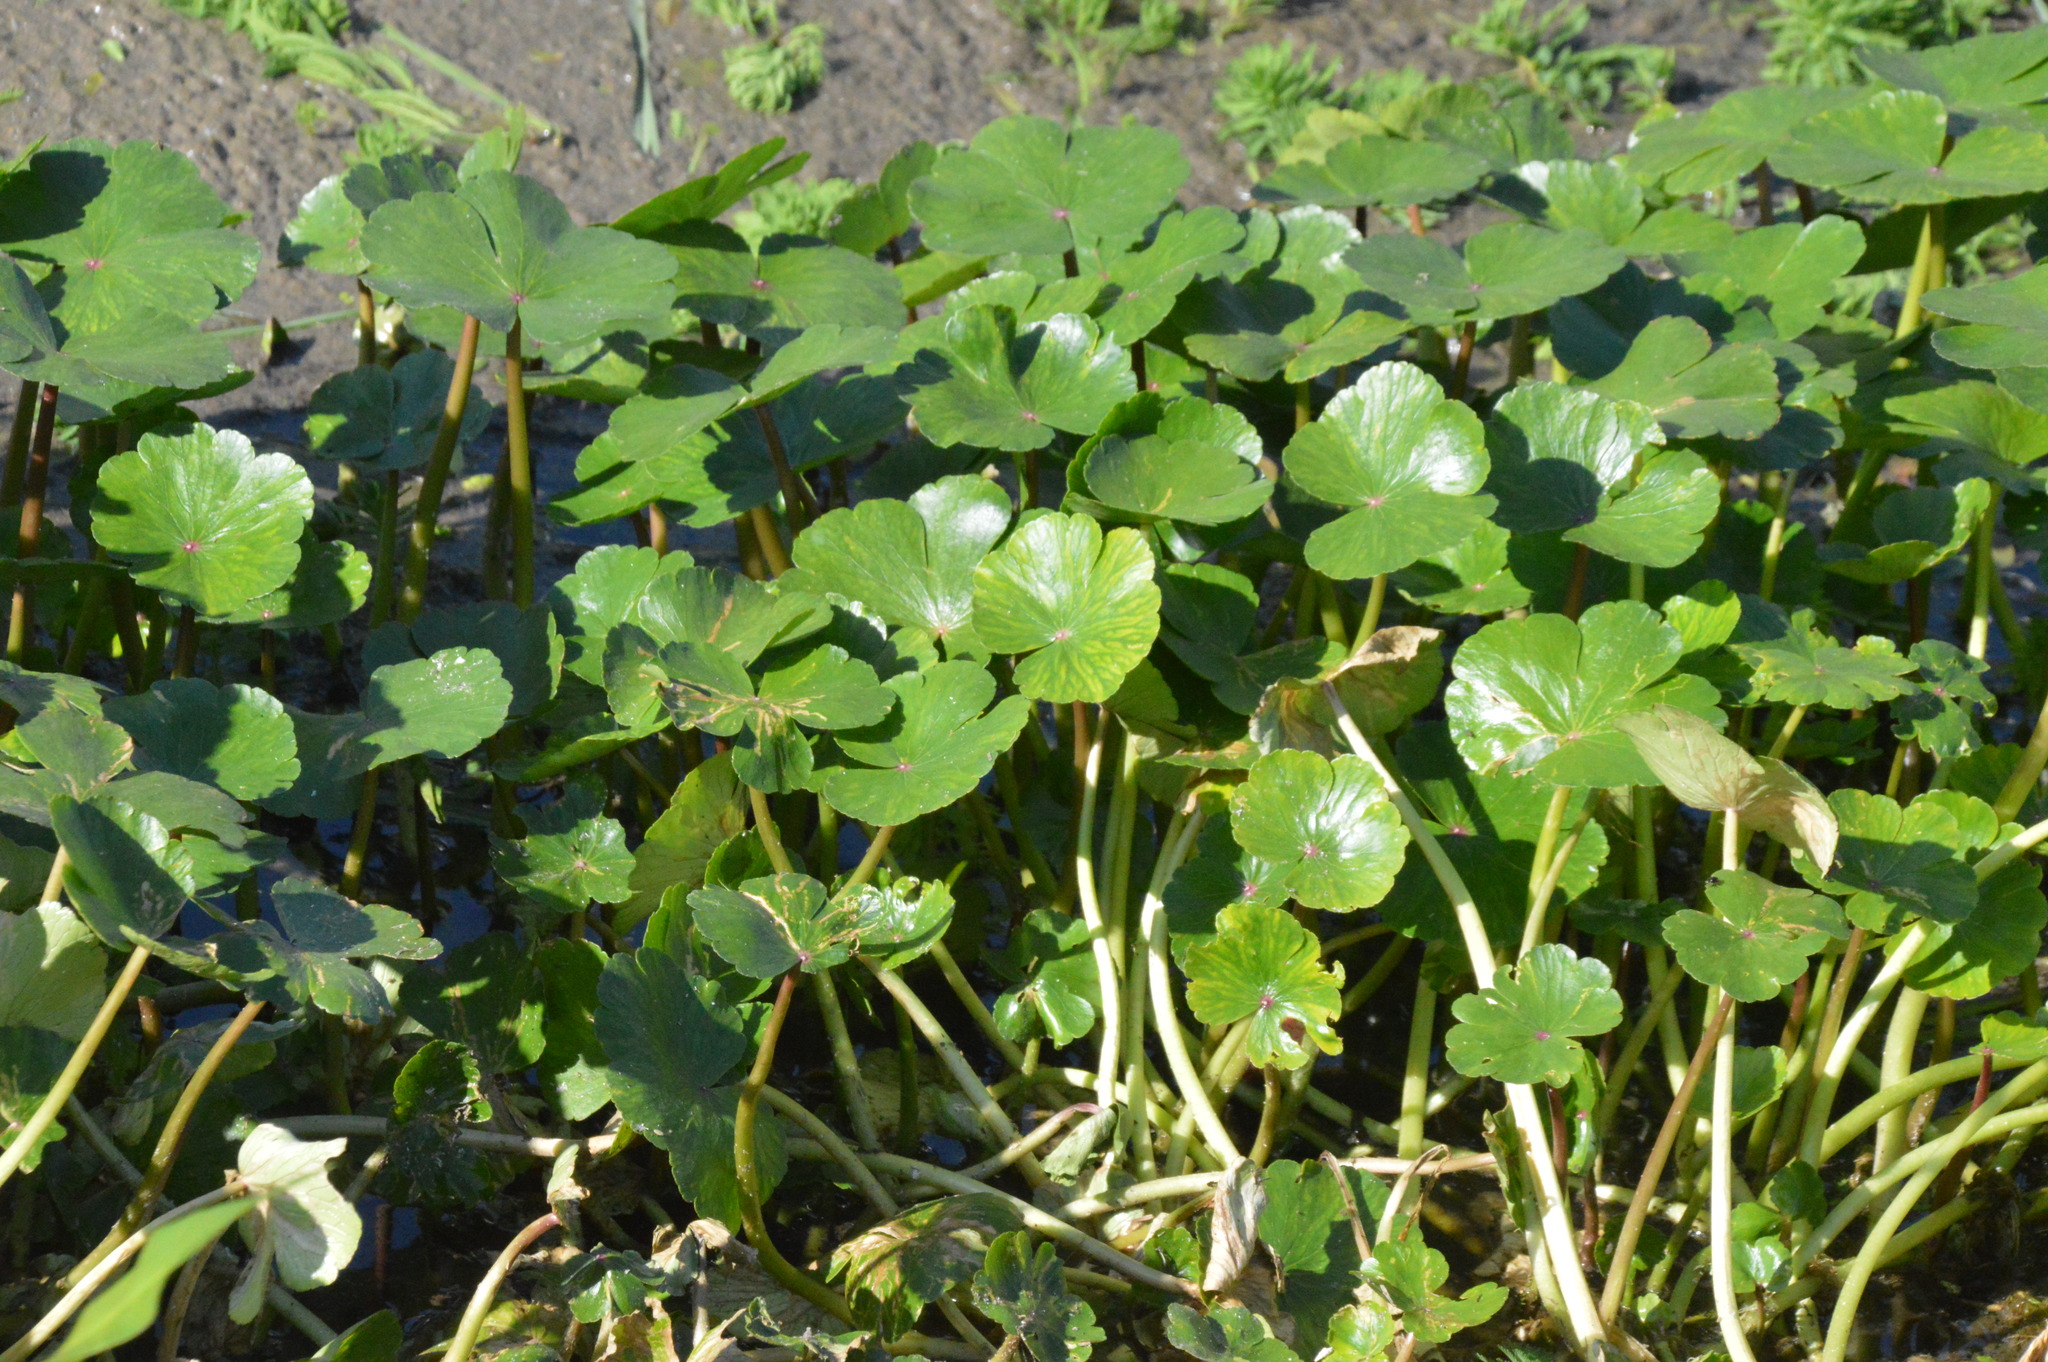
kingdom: Plantae
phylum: Tracheophyta
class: Magnoliopsida
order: Apiales
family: Araliaceae
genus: Hydrocotyle
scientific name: Hydrocotyle ranunculoides
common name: Floating pennywort
